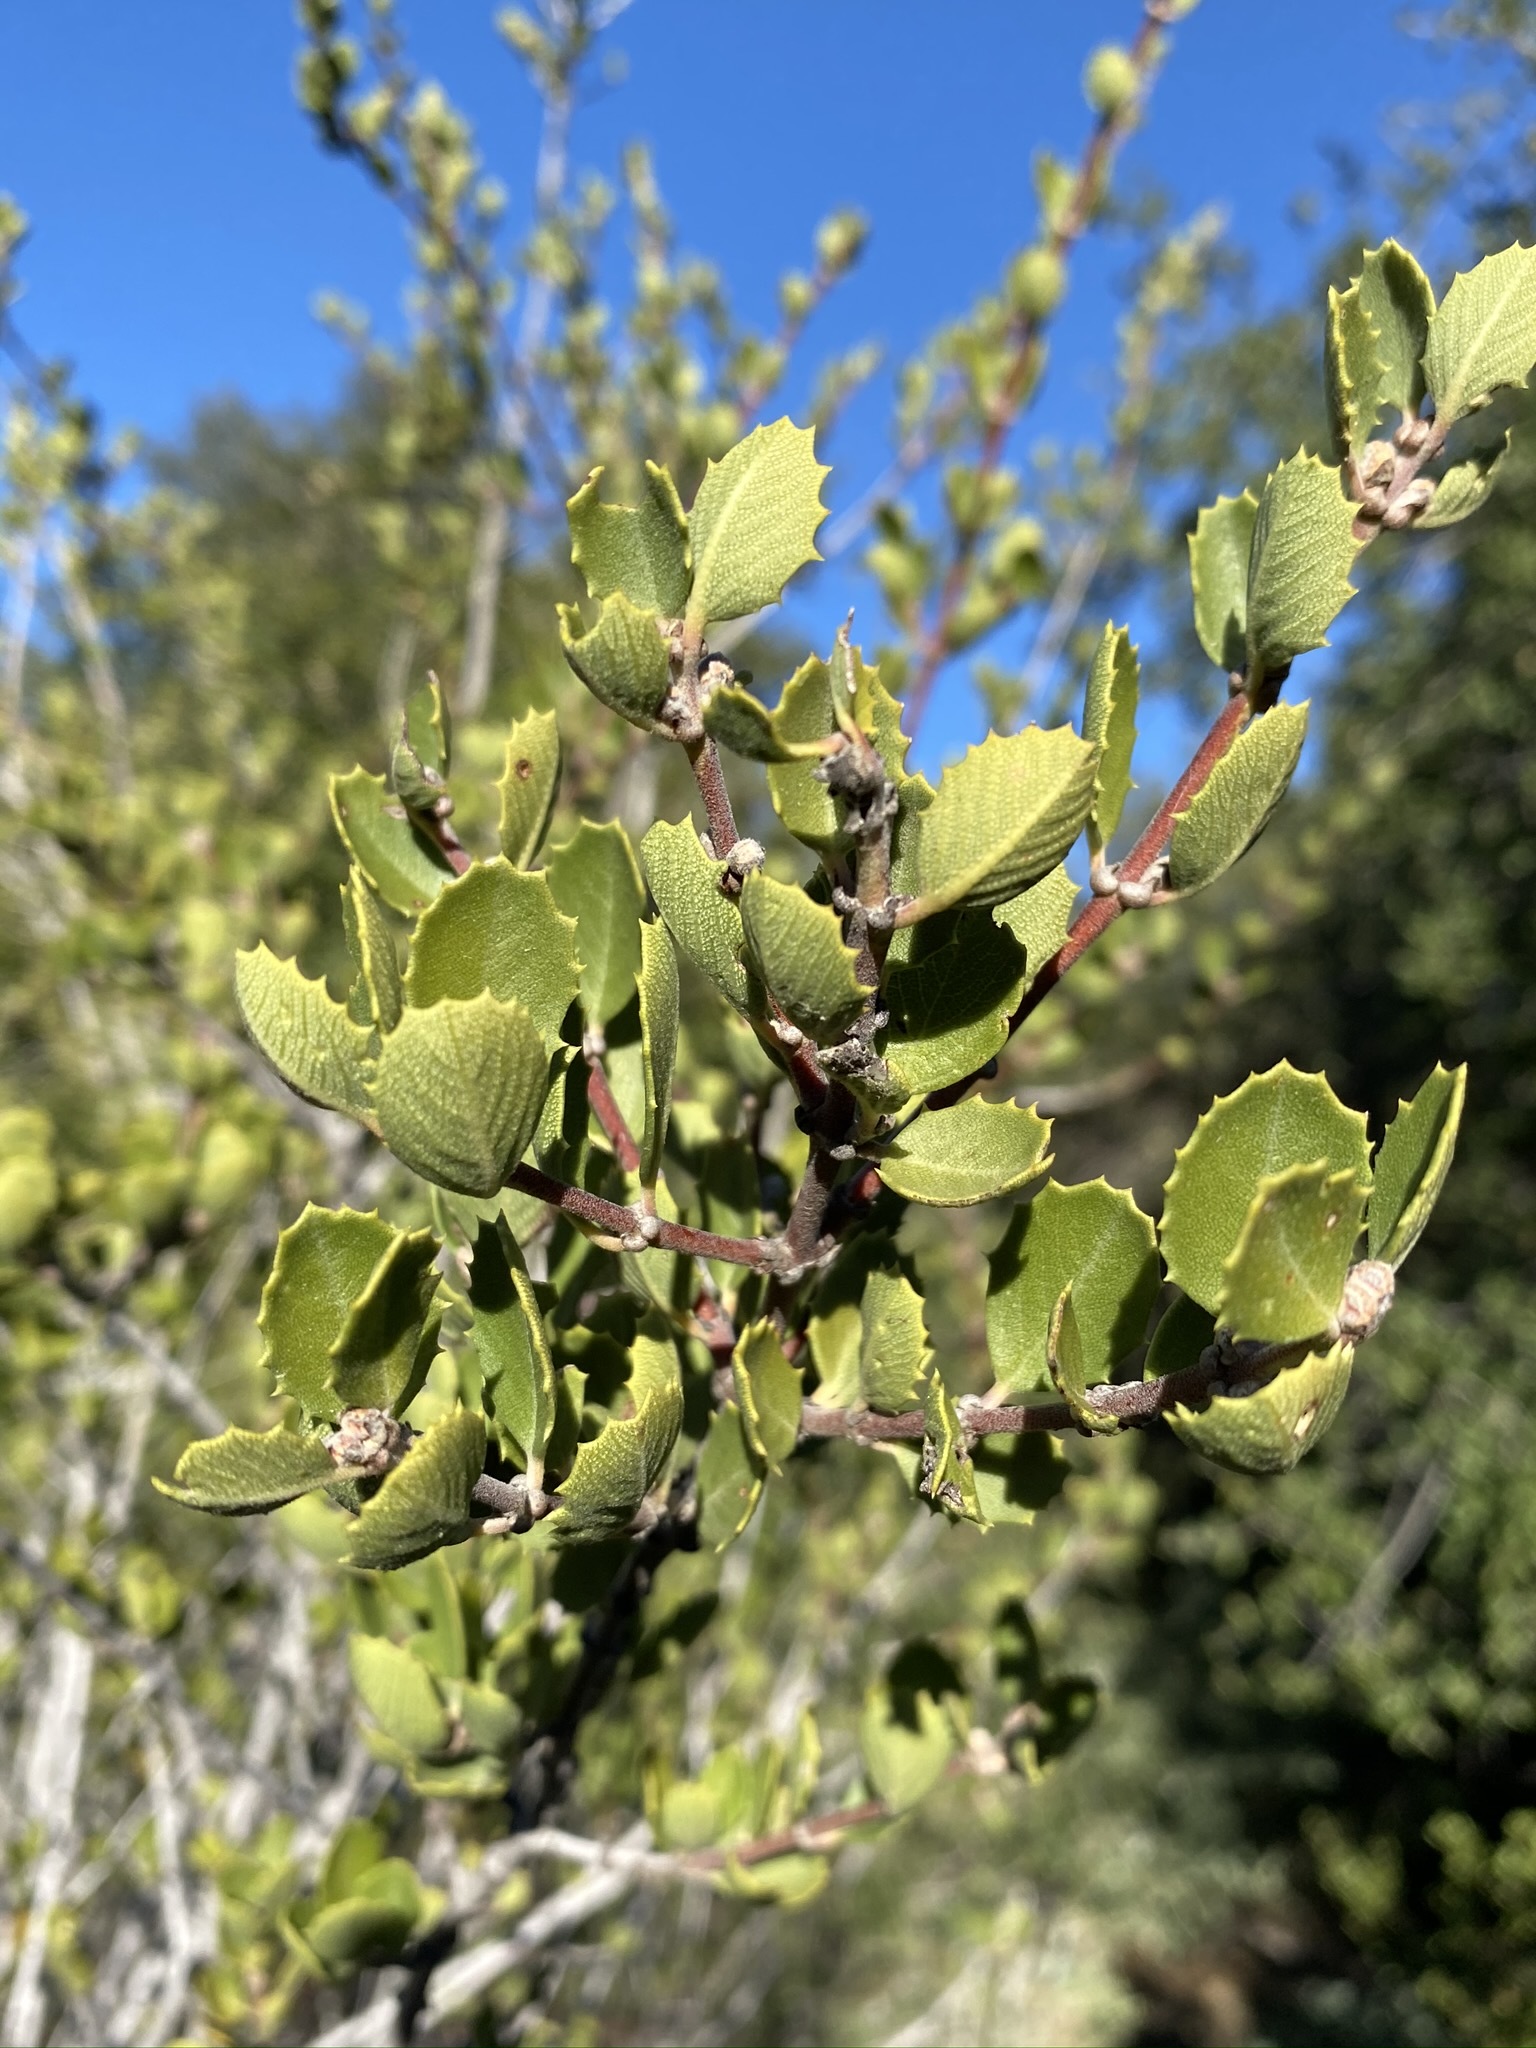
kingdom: Plantae
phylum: Tracheophyta
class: Magnoliopsida
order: Rosales
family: Rhamnaceae
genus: Ceanothus
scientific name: Ceanothus perplexans
